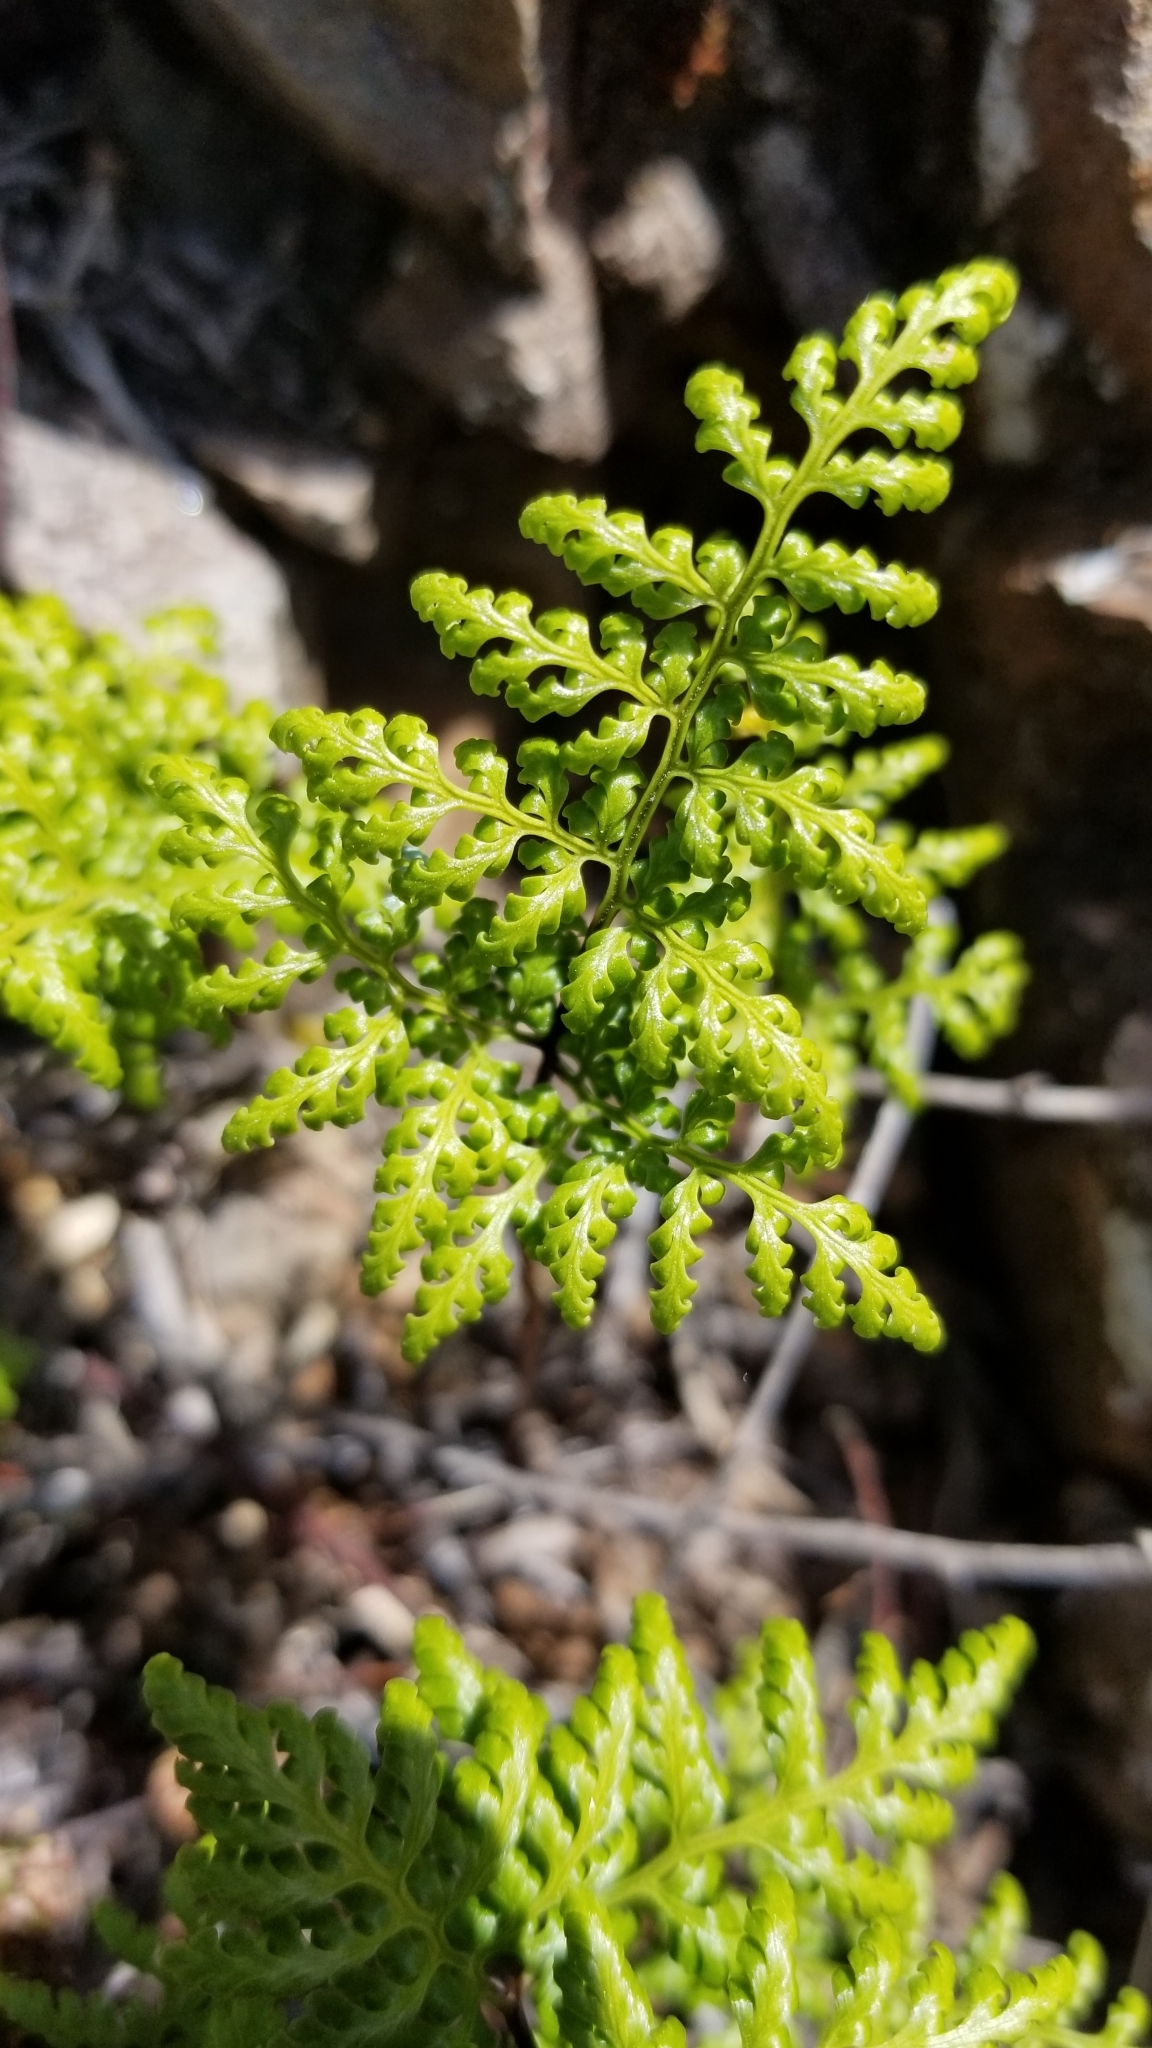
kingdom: Plantae
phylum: Tracheophyta
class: Polypodiopsida
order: Polypodiales
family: Pteridaceae
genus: Aspidotis
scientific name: Aspidotis californica
